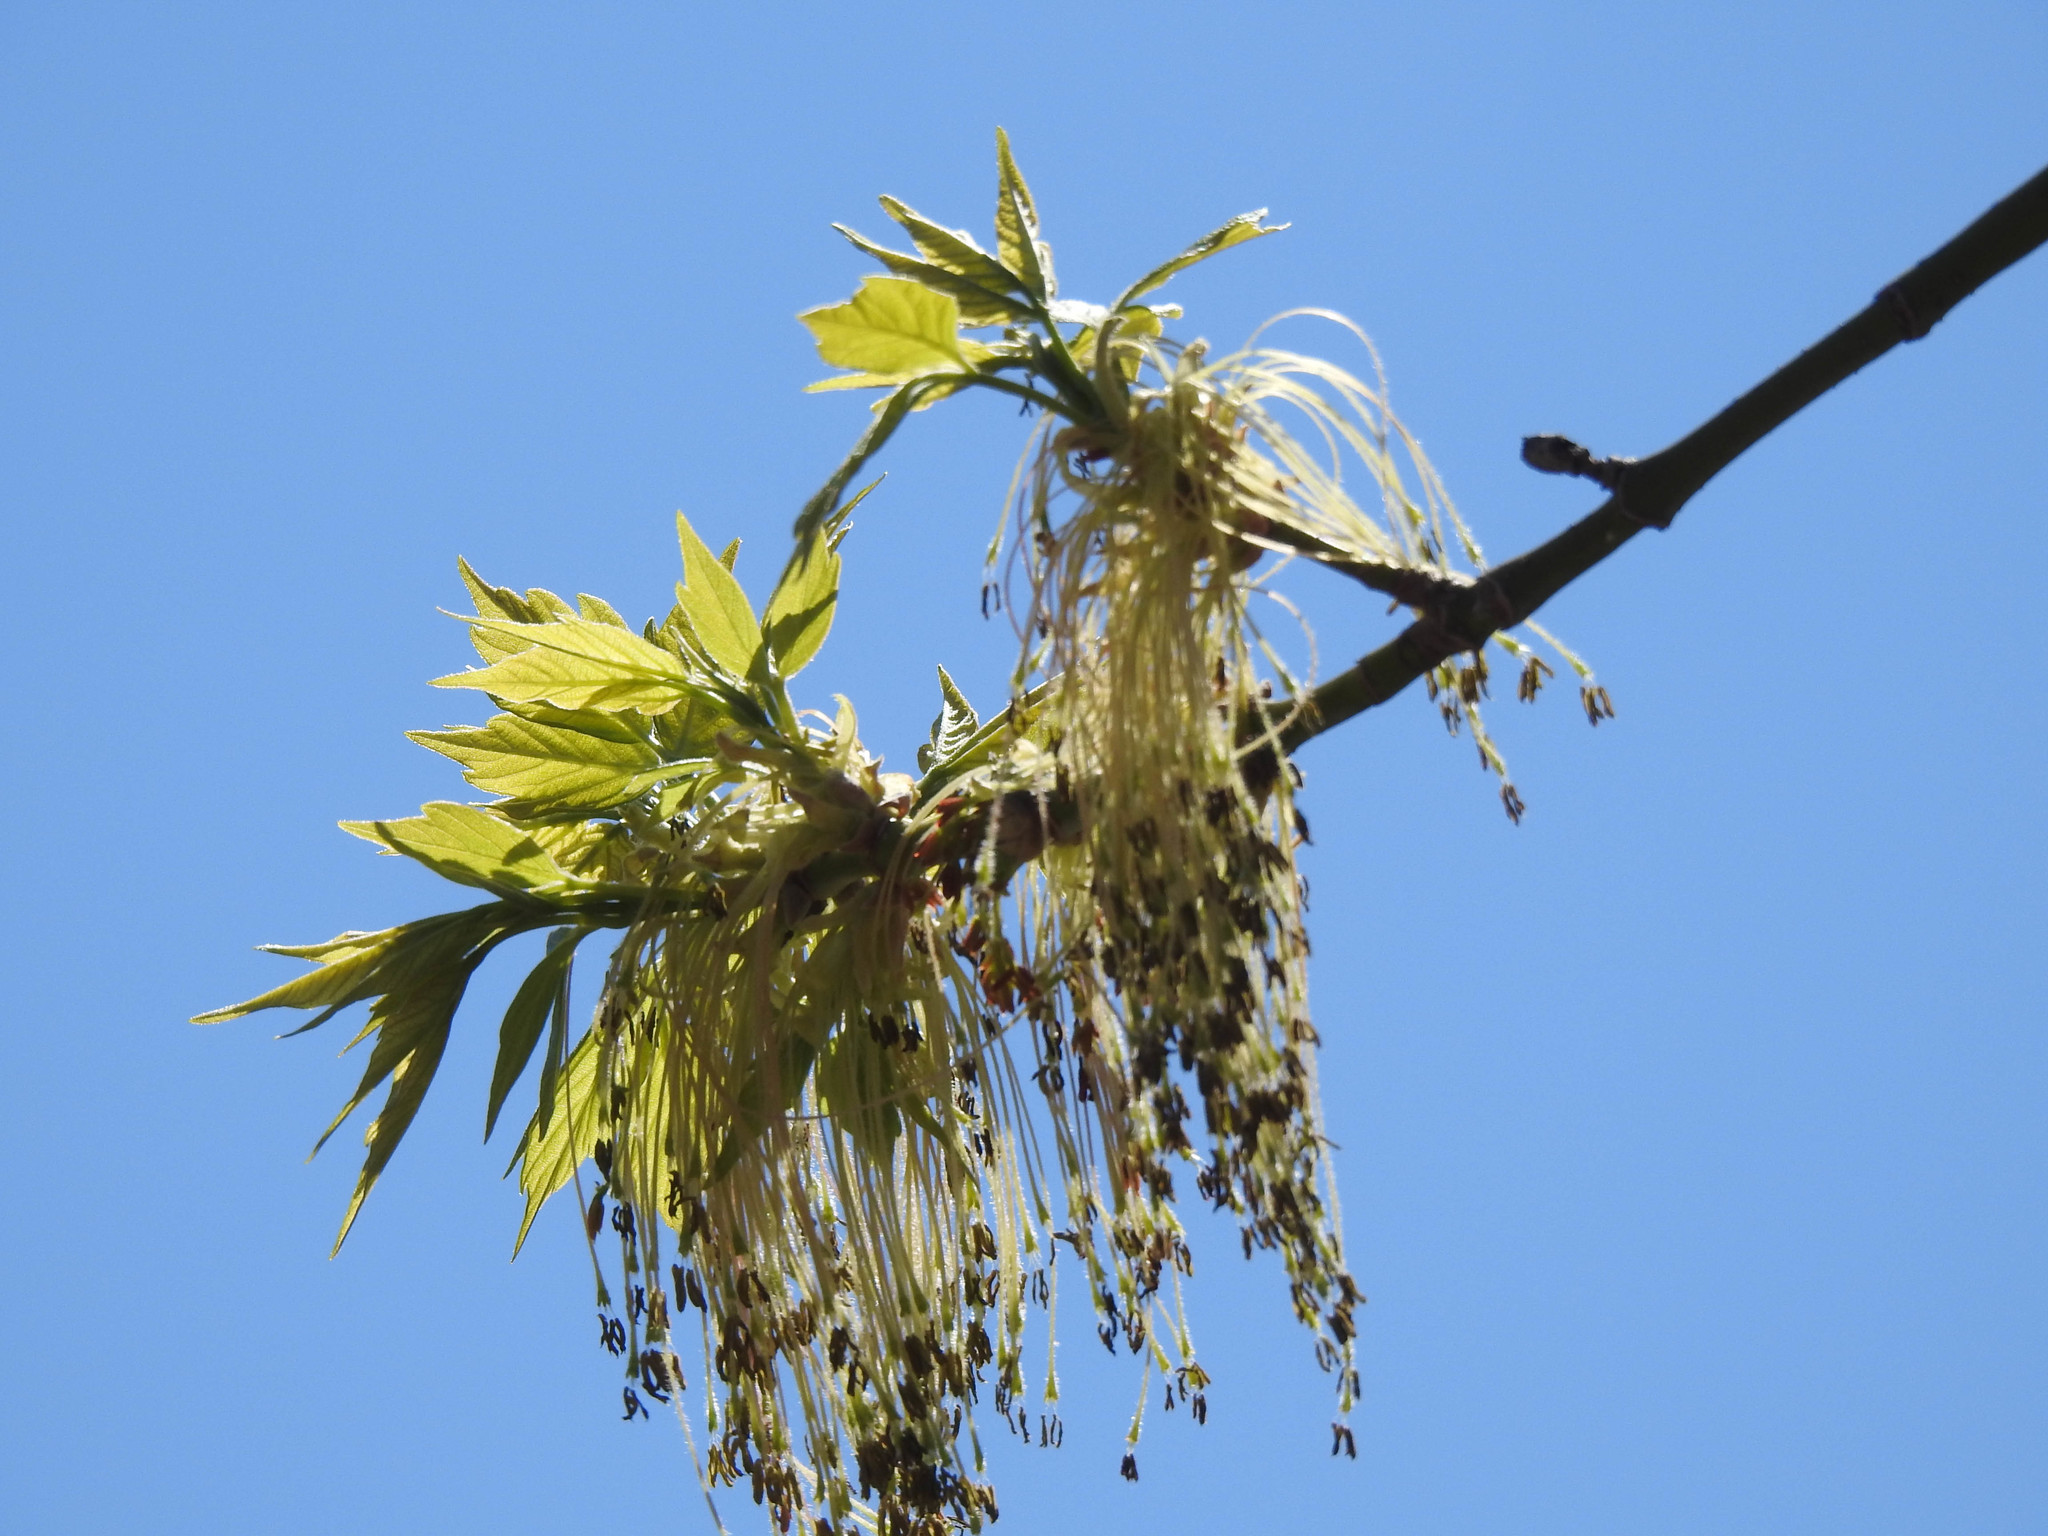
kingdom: Plantae
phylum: Tracheophyta
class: Magnoliopsida
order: Sapindales
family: Sapindaceae
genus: Acer
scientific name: Acer negundo
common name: Ashleaf maple
